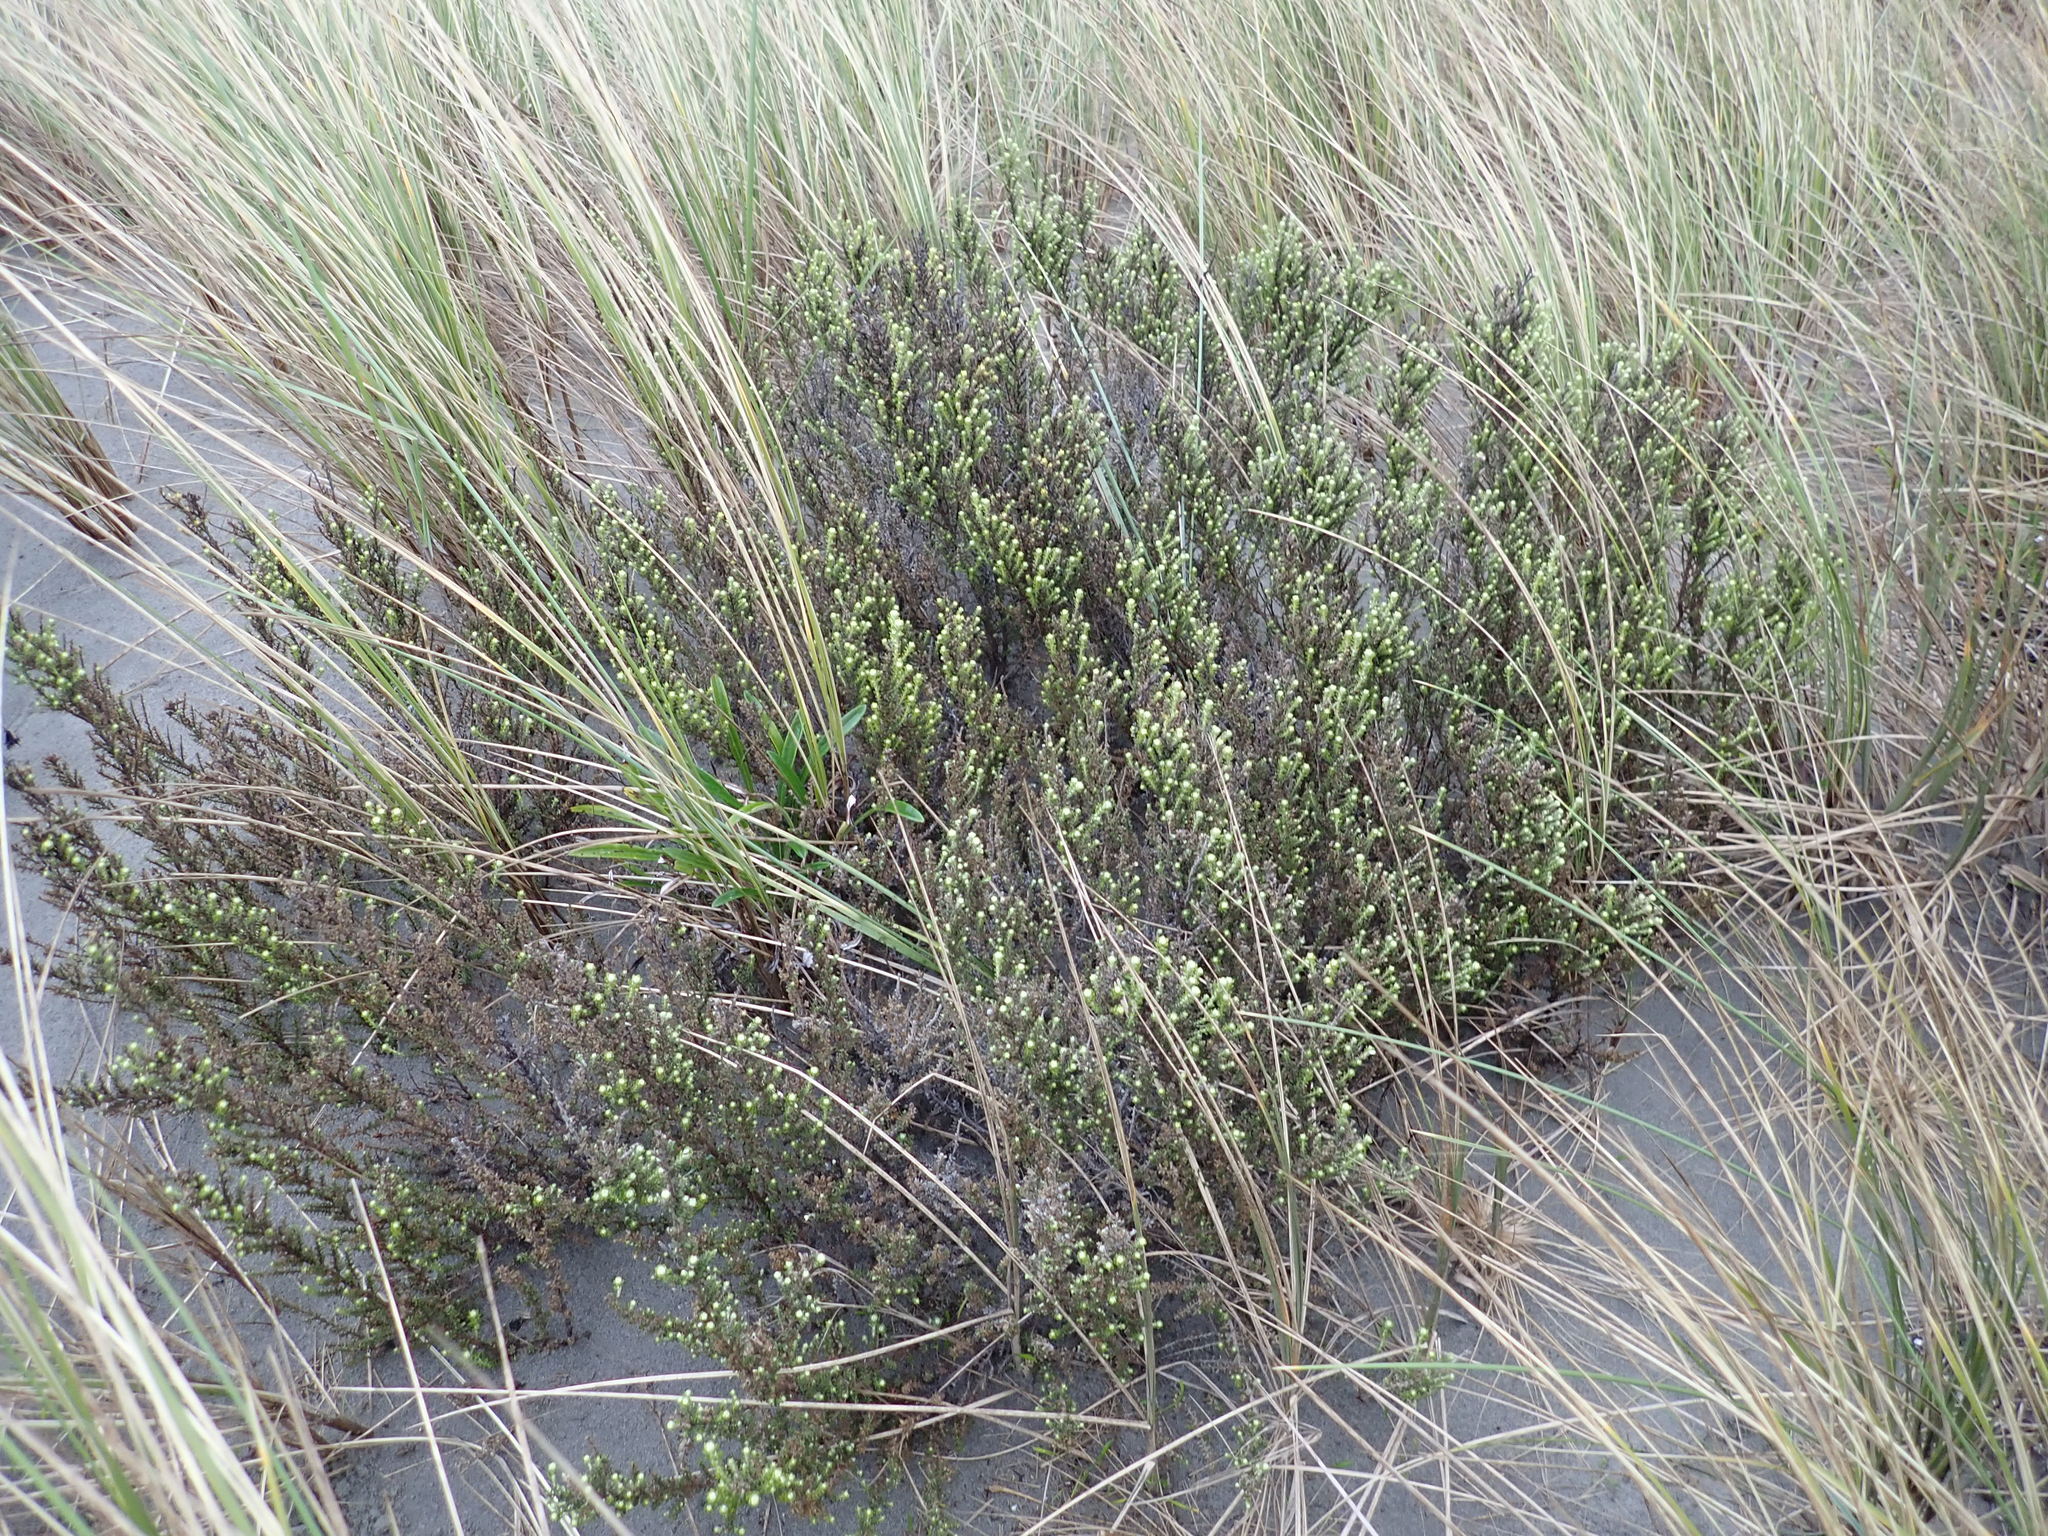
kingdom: Plantae
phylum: Tracheophyta
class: Magnoliopsida
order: Asterales
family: Asteraceae
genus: Ozothamnus
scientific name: Ozothamnus leptophyllus
